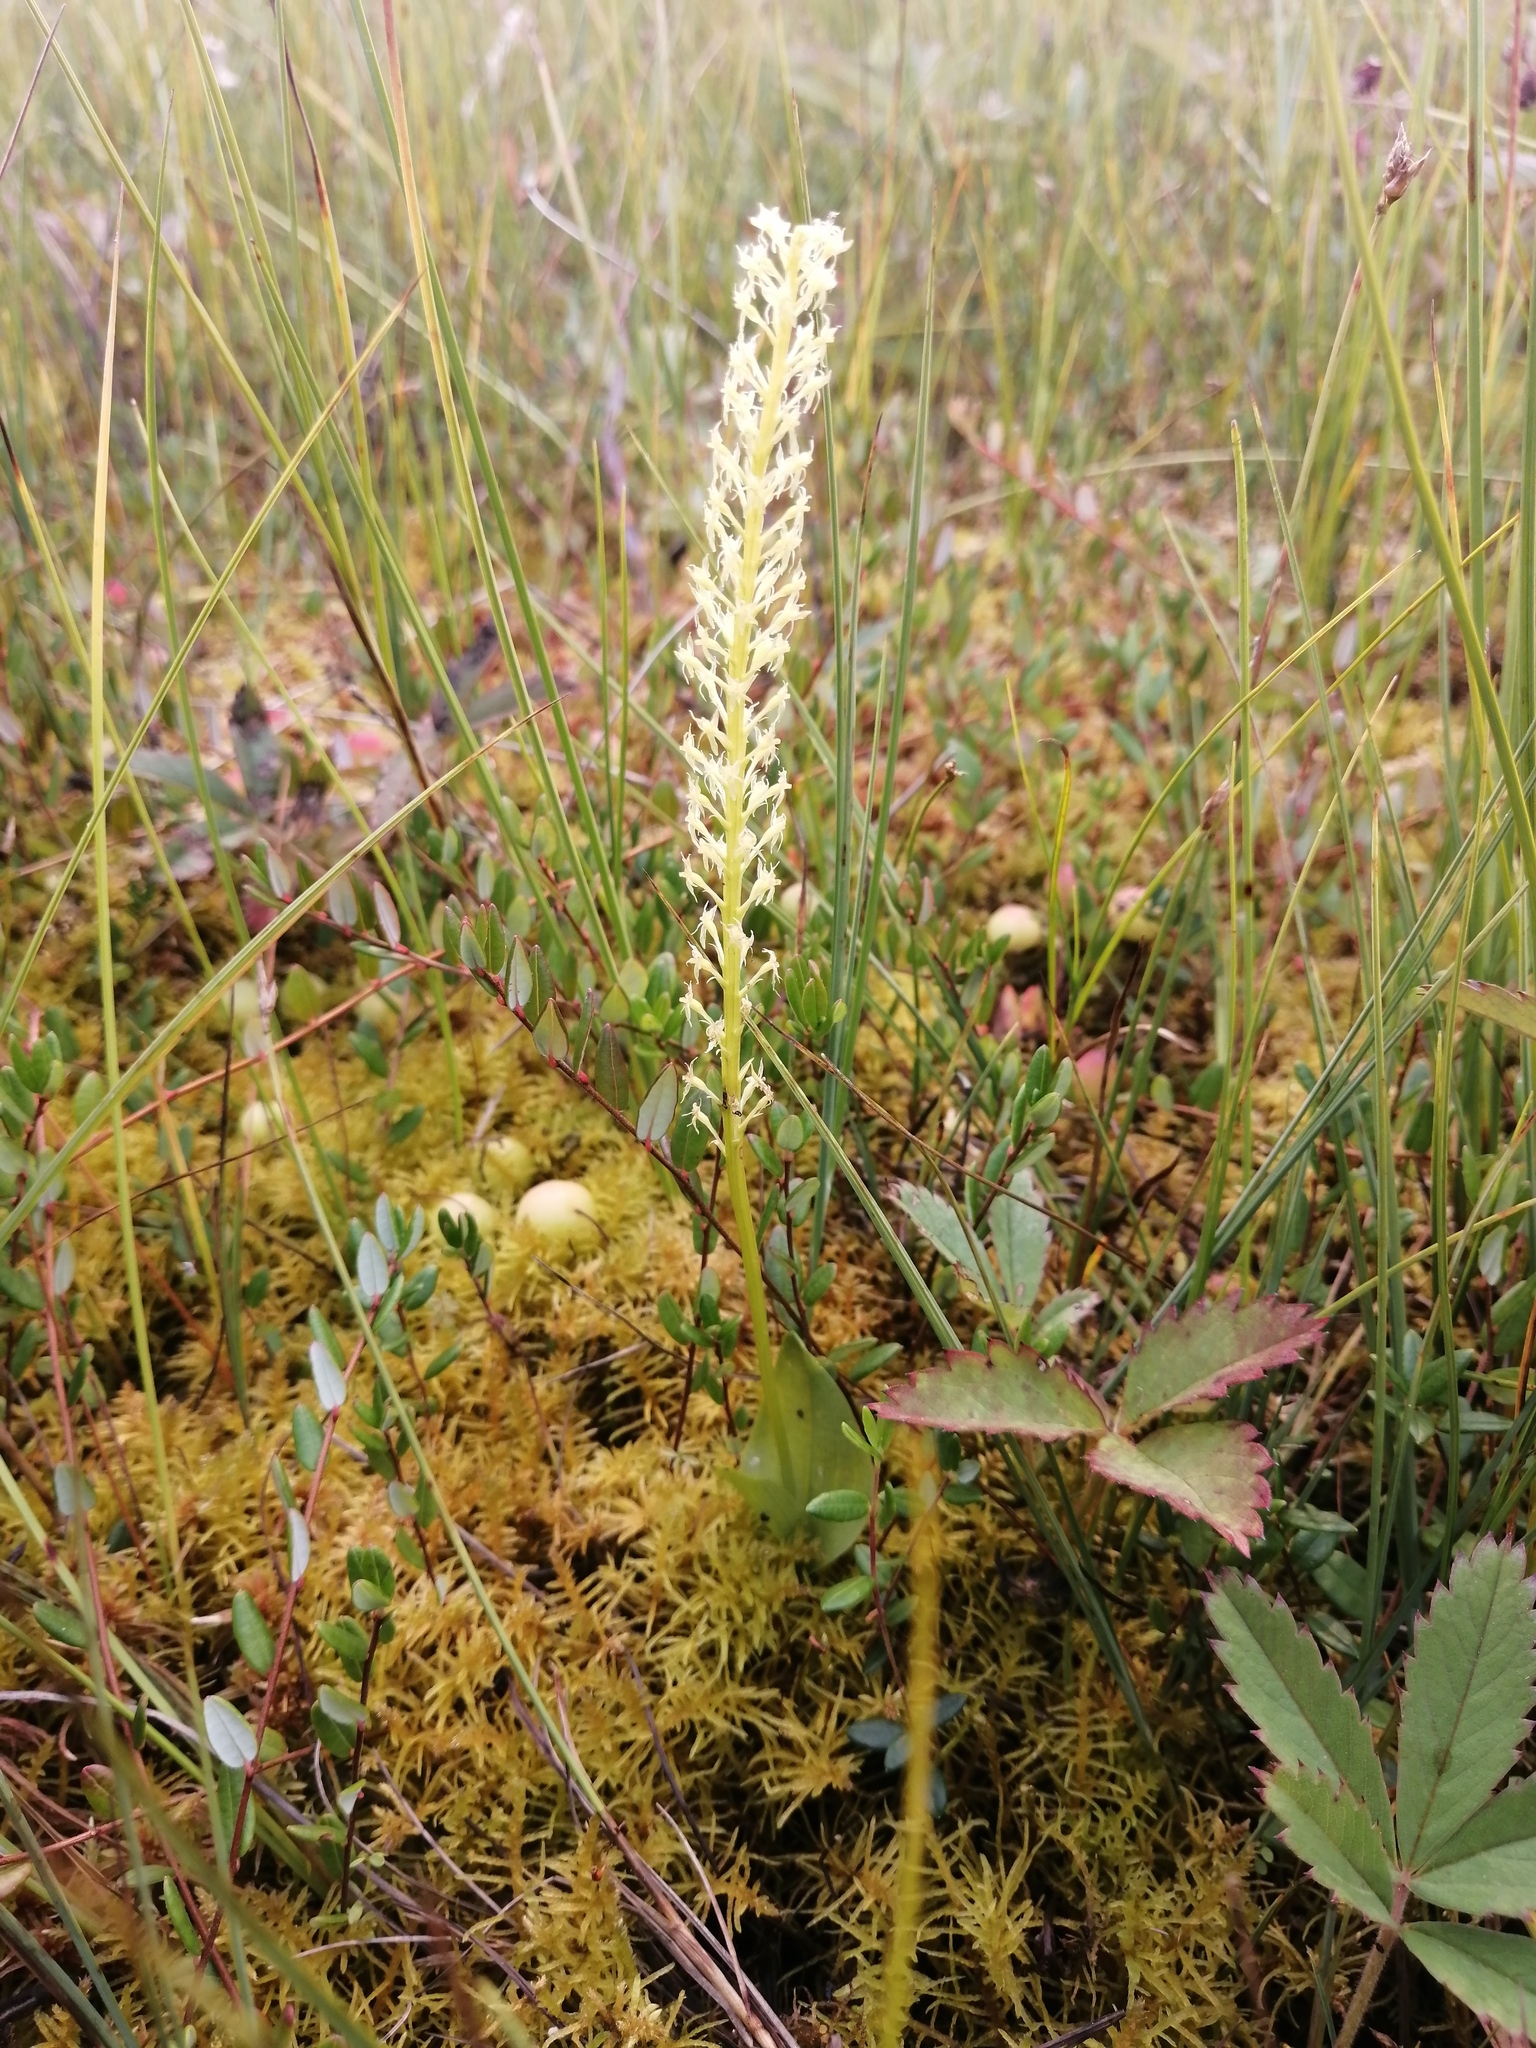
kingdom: Plantae
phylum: Tracheophyta
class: Liliopsida
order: Asparagales
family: Orchidaceae
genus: Malaxis
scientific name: Malaxis monophyllos
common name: White adder's-mouth
